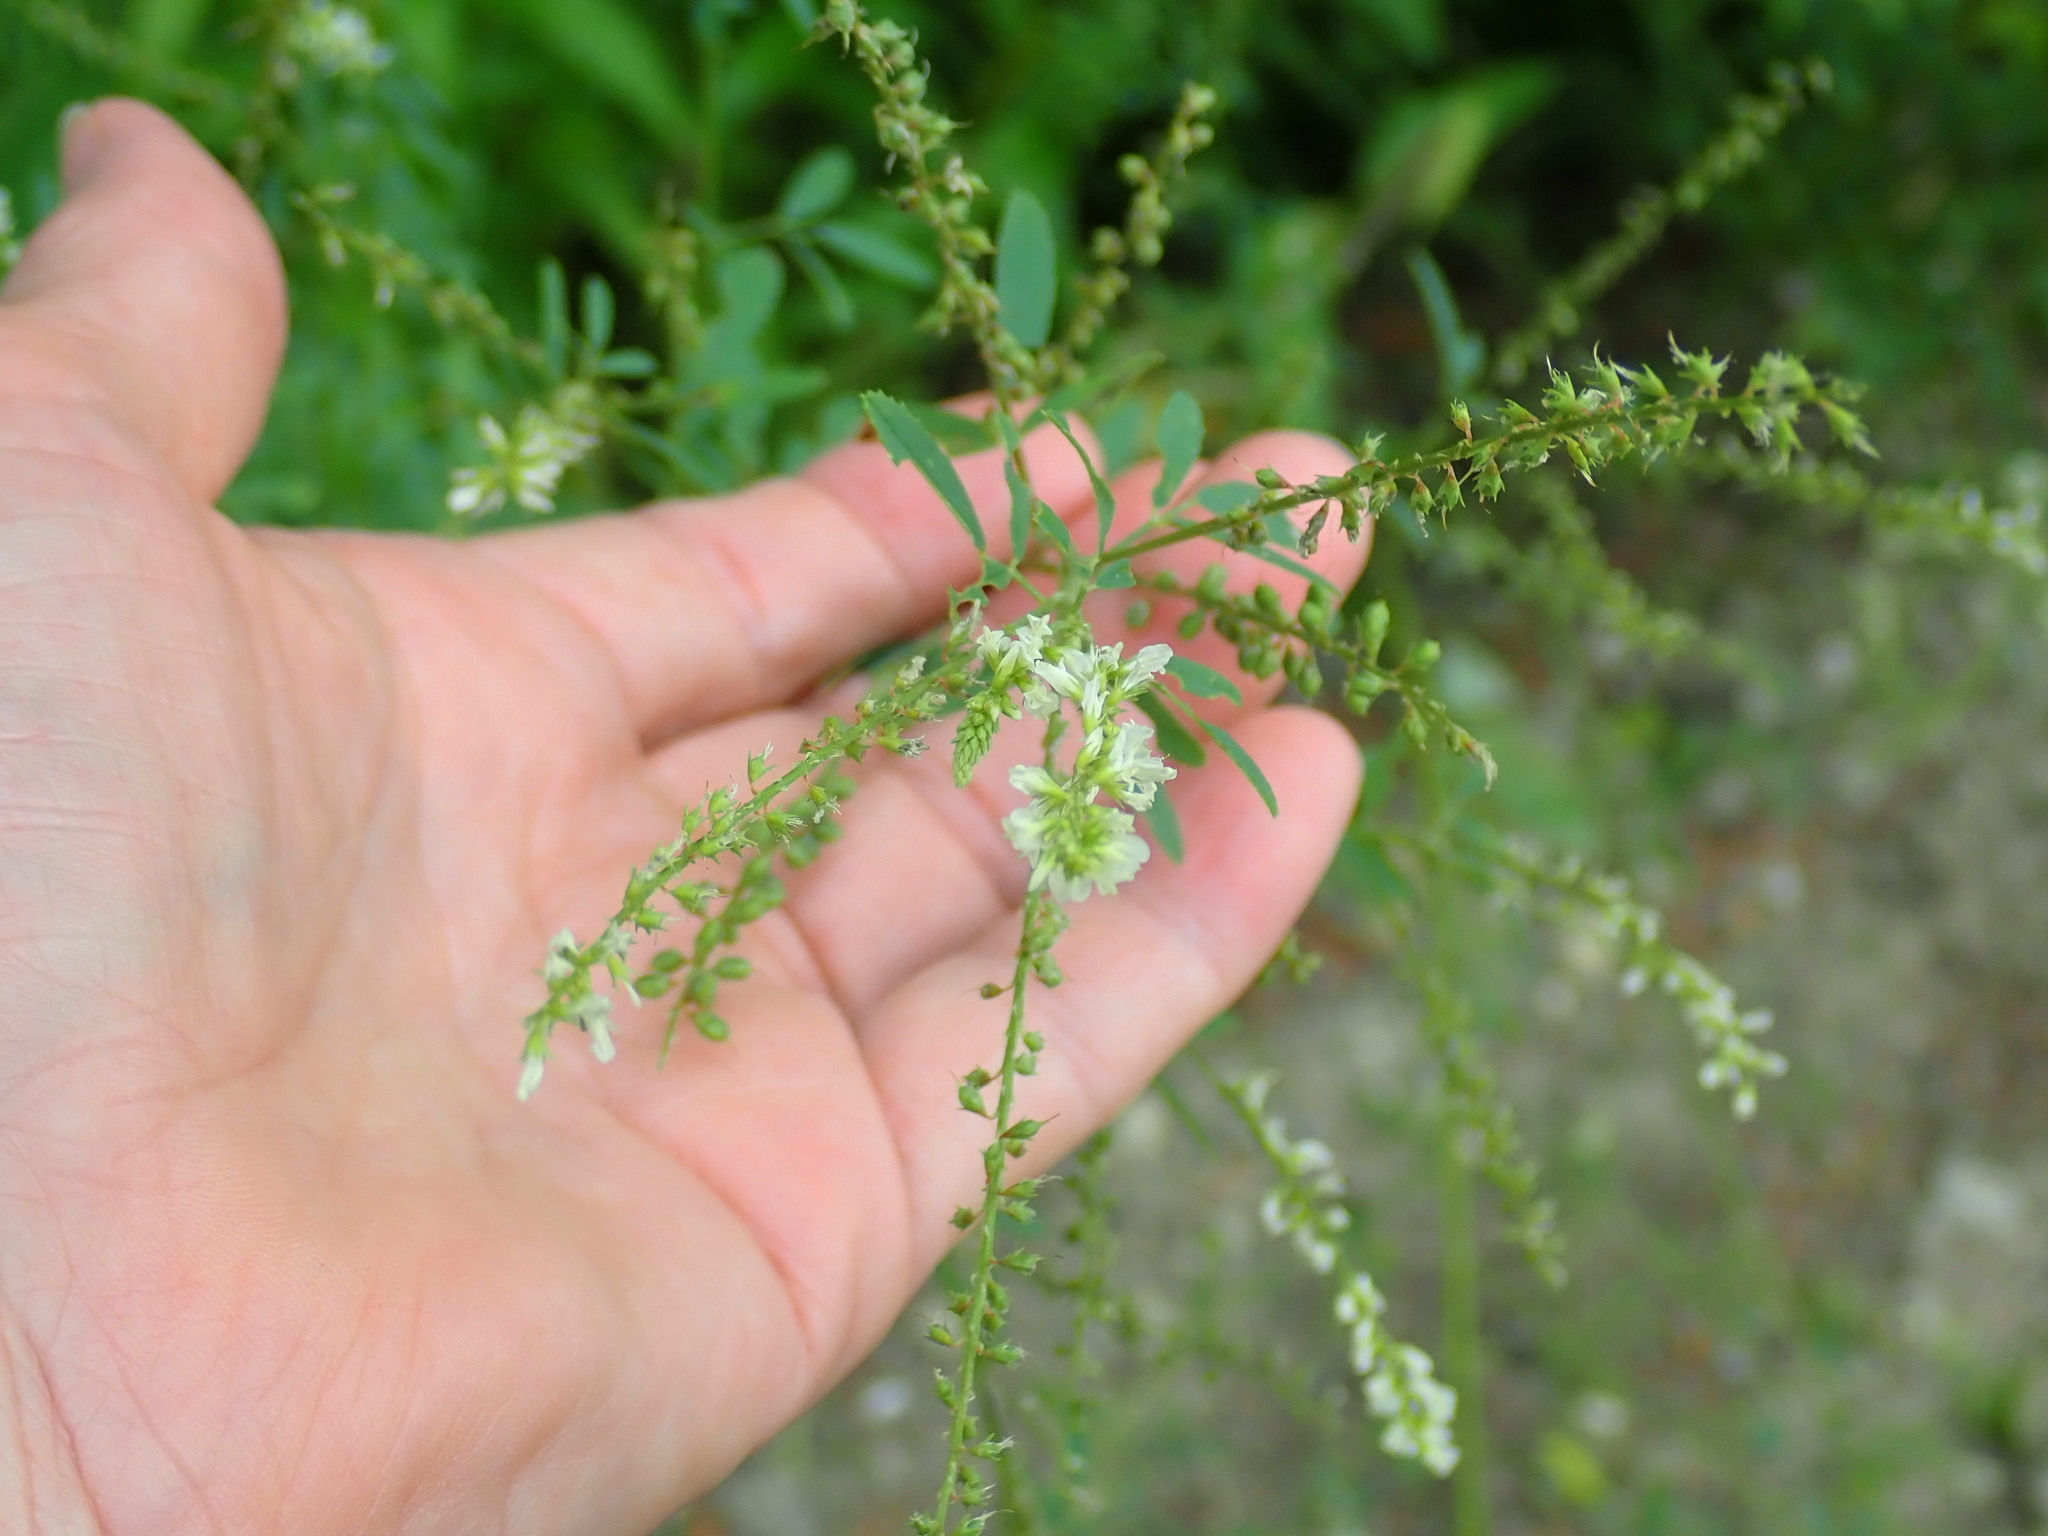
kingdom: Plantae
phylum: Tracheophyta
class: Magnoliopsida
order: Fabales
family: Fabaceae
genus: Melilotus
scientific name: Melilotus albus
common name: White melilot
